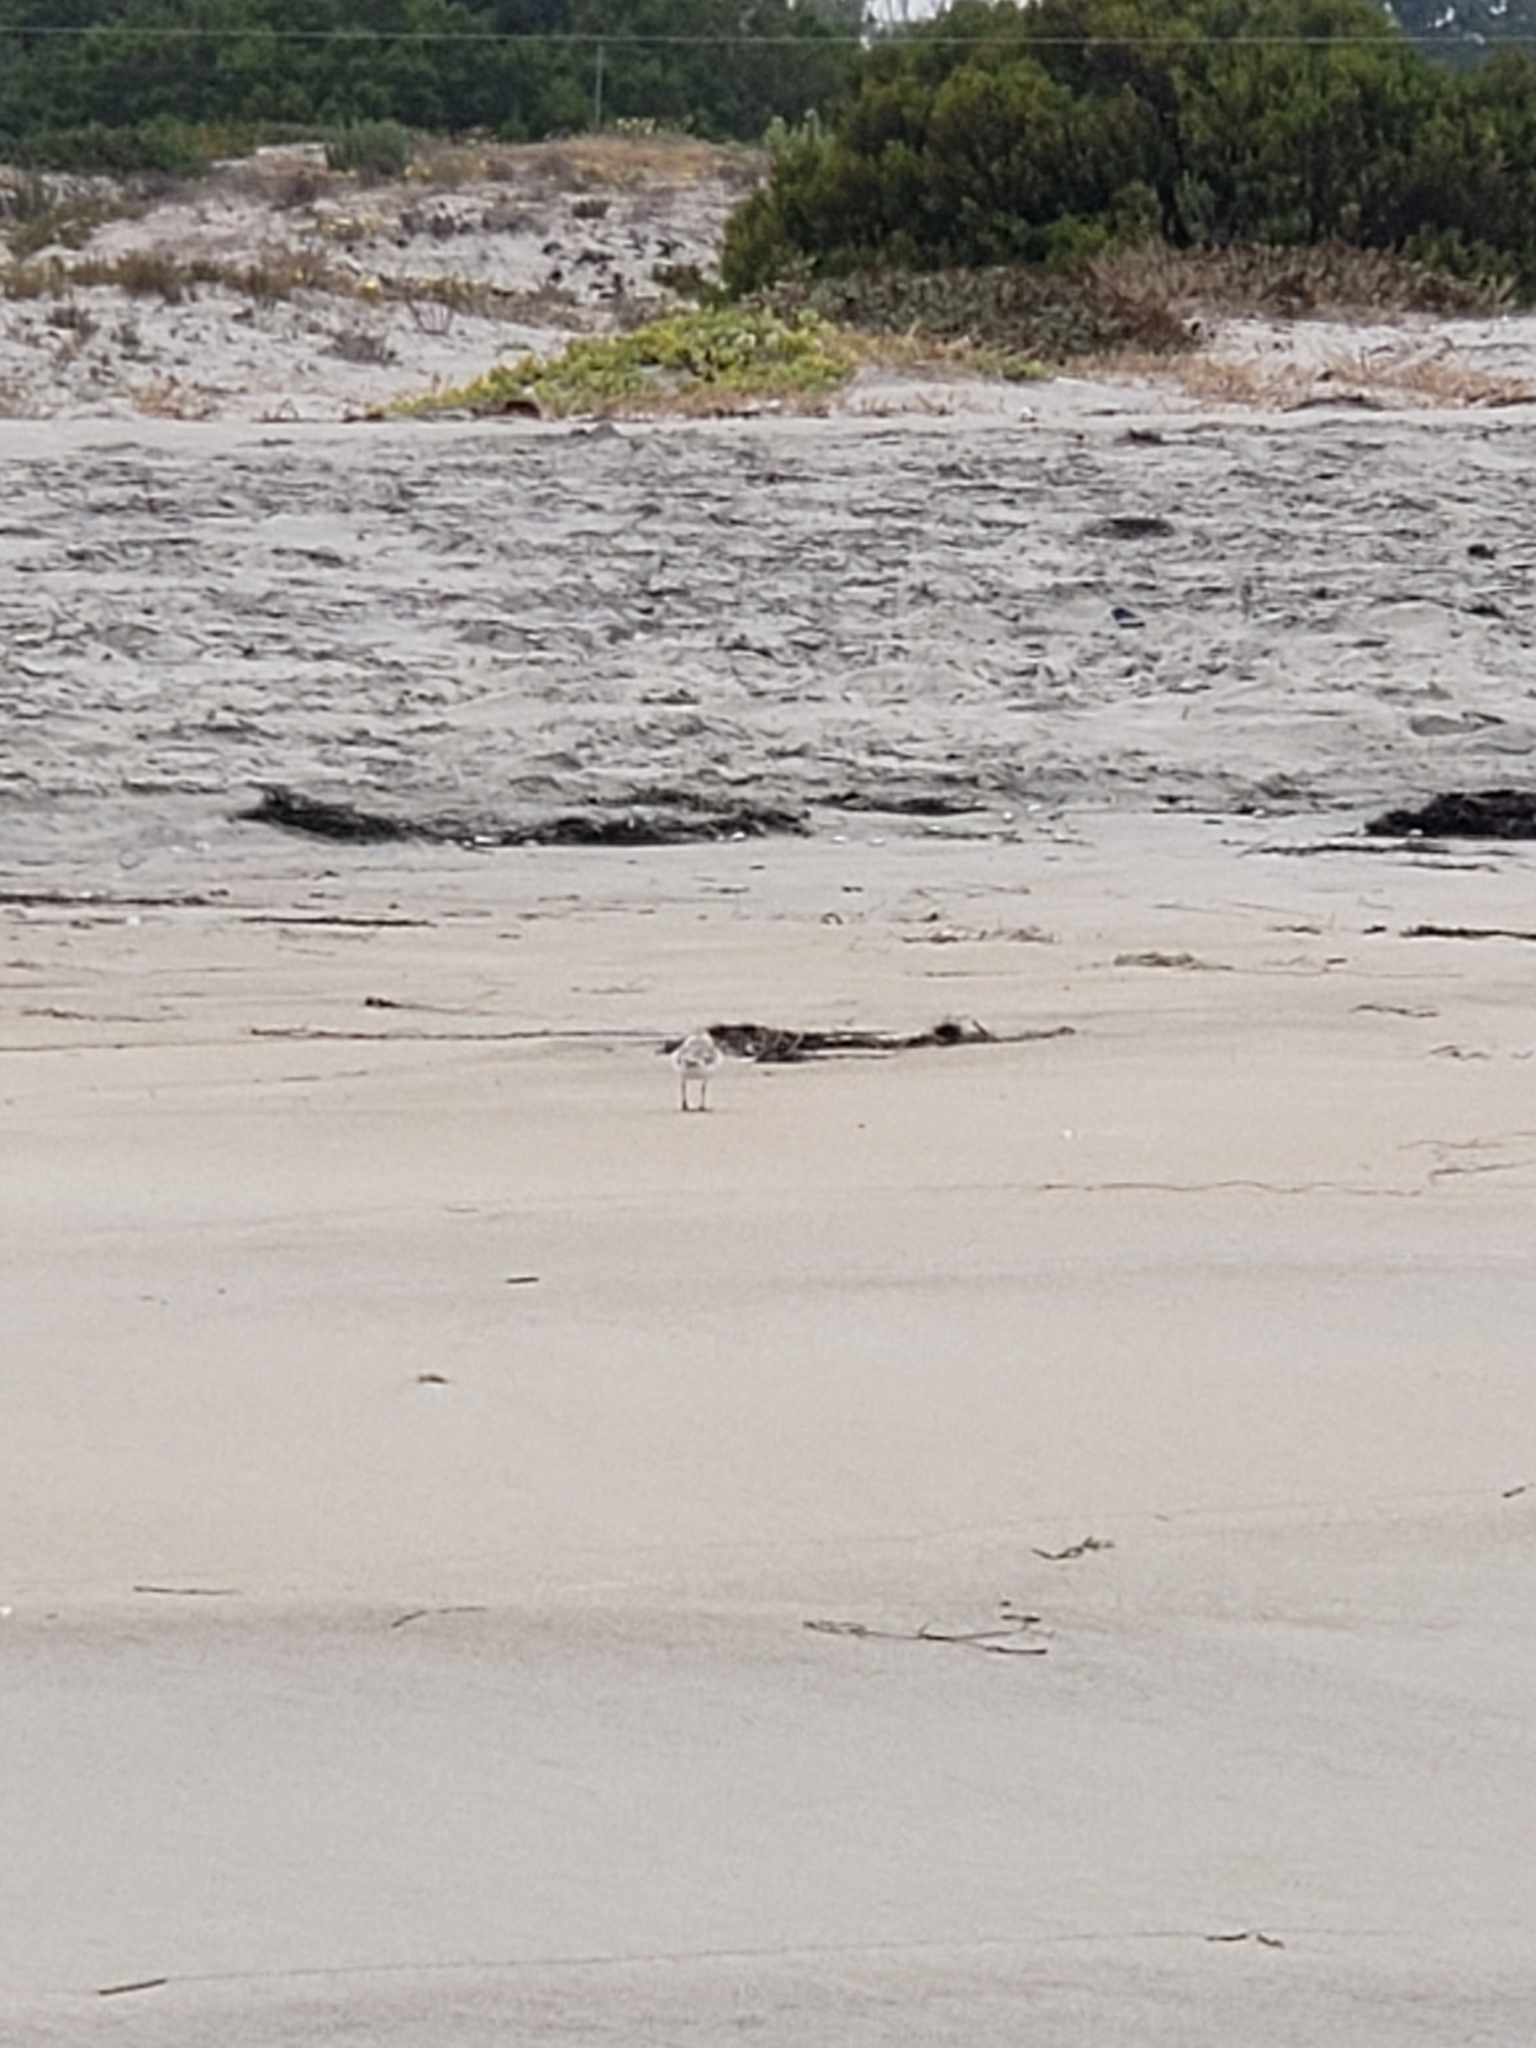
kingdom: Animalia
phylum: Chordata
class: Aves
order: Charadriiformes
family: Charadriidae
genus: Anarhynchus
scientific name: Anarhynchus
